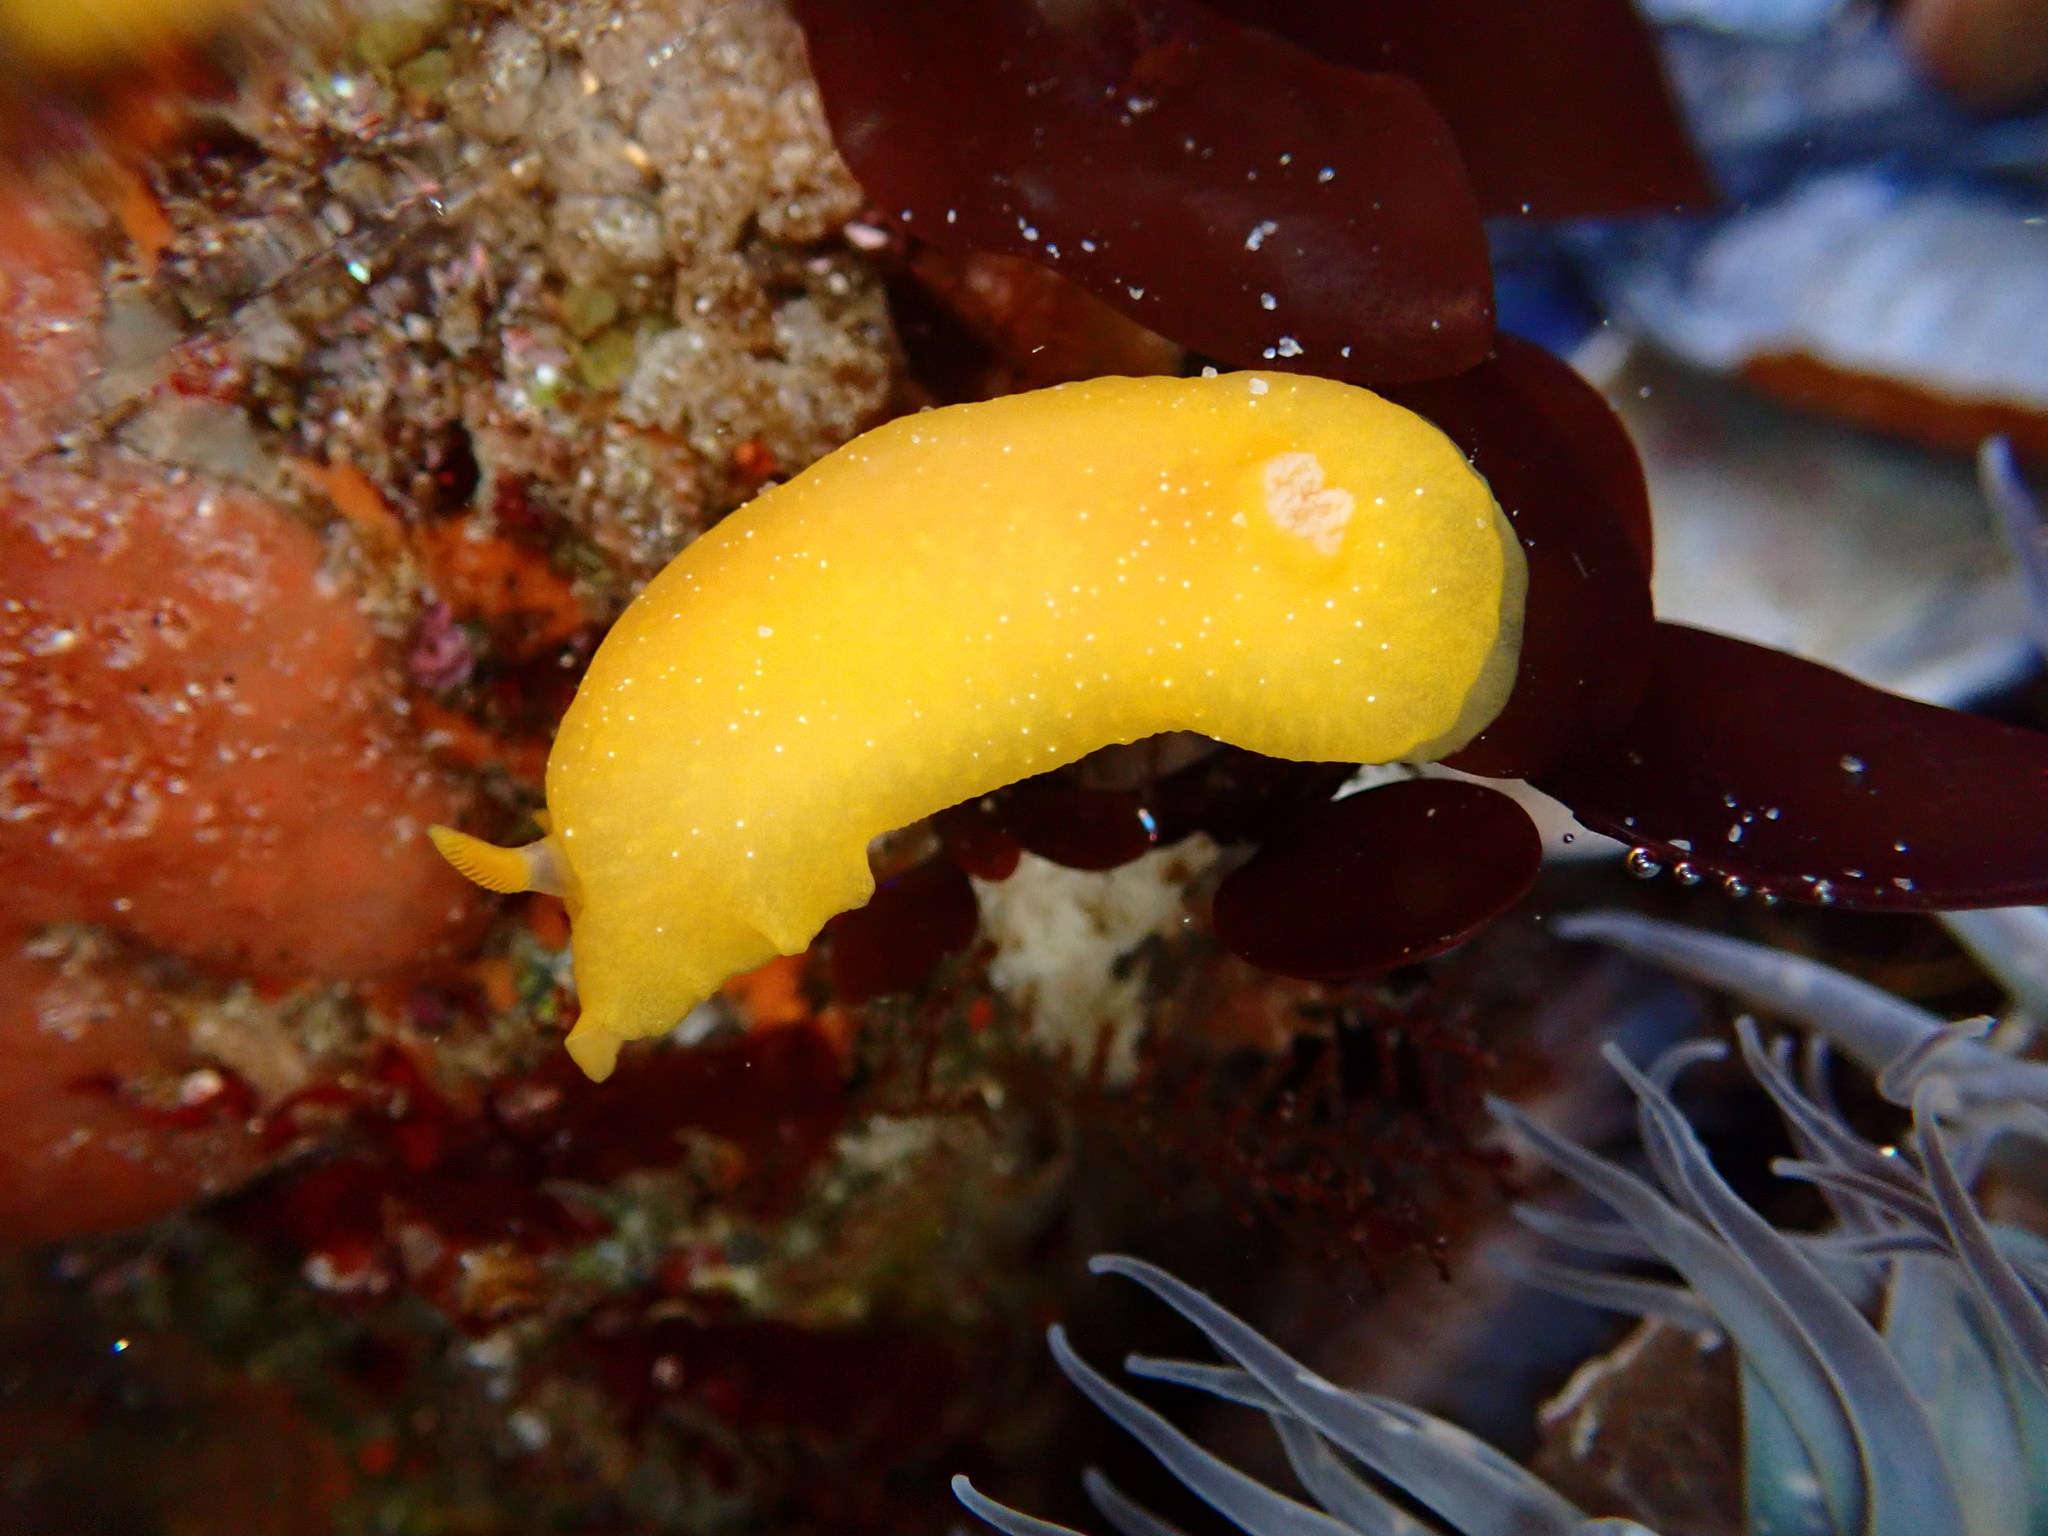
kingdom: Animalia
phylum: Mollusca
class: Gastropoda
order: Nudibranchia
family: Dendrodorididae
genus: Doriopsilla
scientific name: Doriopsilla fulva
